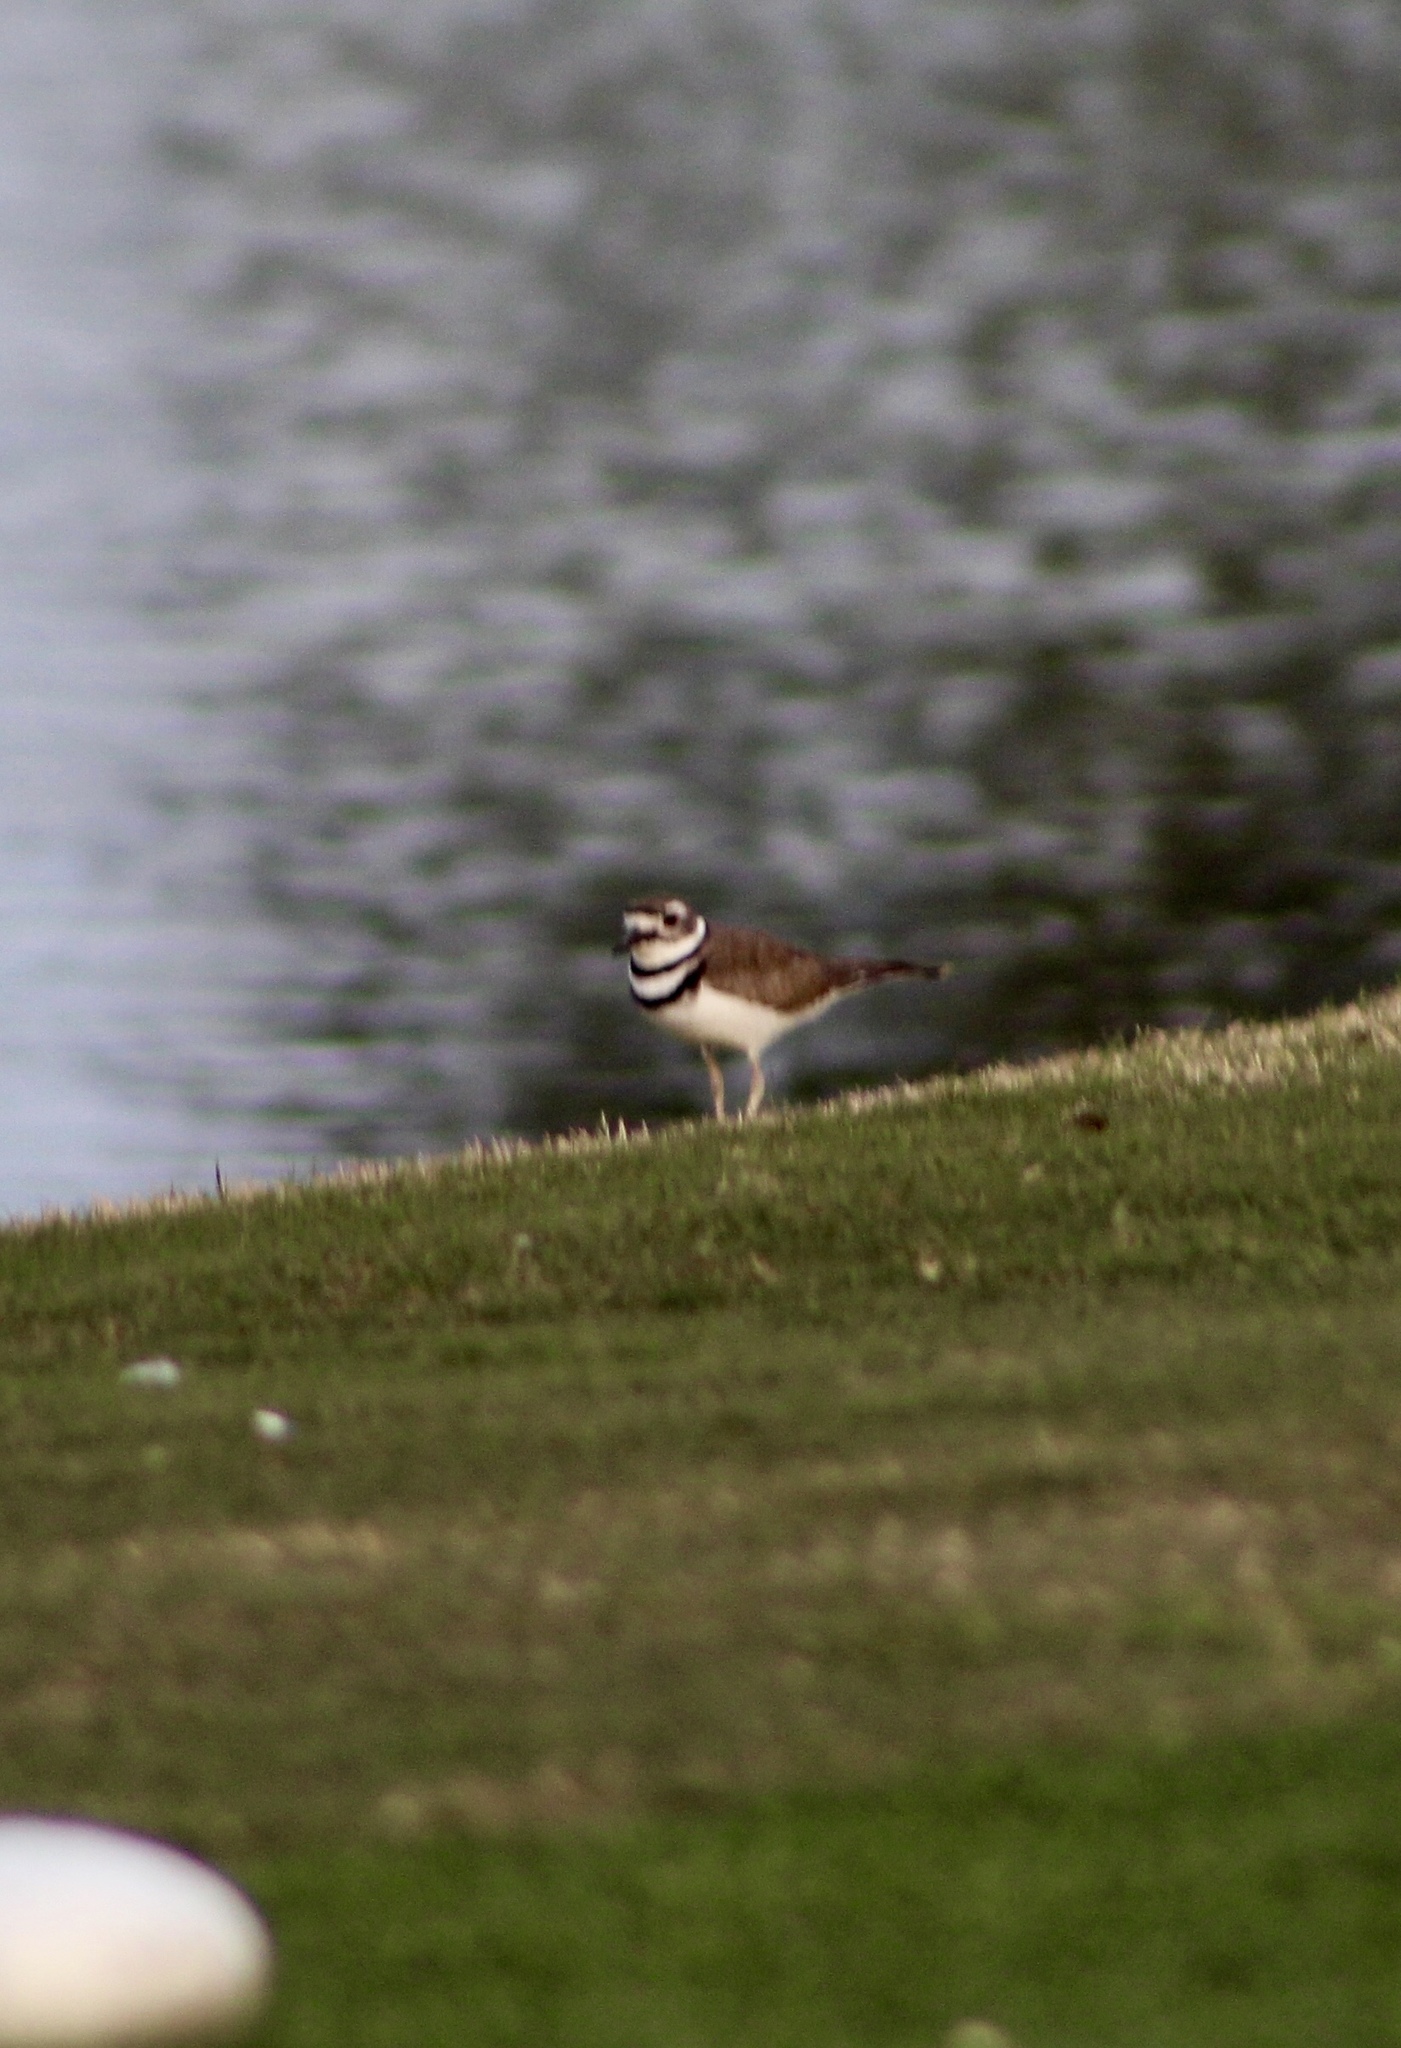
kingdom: Animalia
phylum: Chordata
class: Aves
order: Charadriiformes
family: Charadriidae
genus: Charadrius
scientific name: Charadrius vociferus
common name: Killdeer
